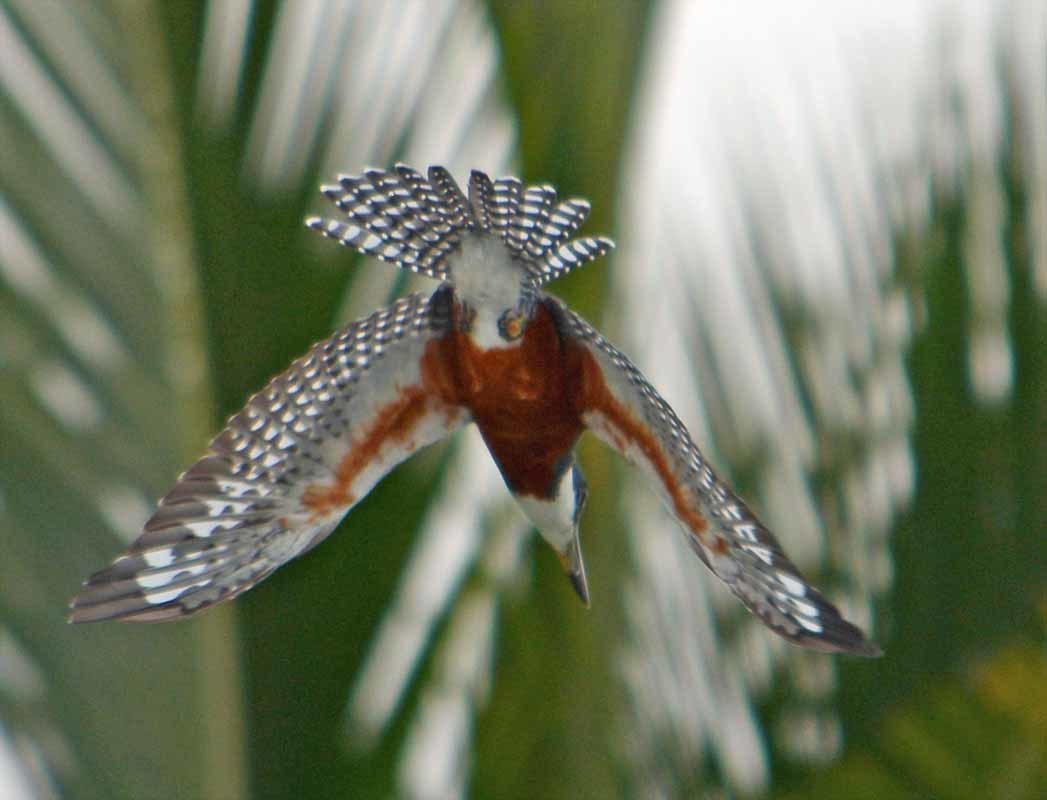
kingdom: Animalia
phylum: Chordata
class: Aves
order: Coraciiformes
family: Alcedinidae
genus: Megaceryle
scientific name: Megaceryle torquata
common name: Ringed kingfisher
